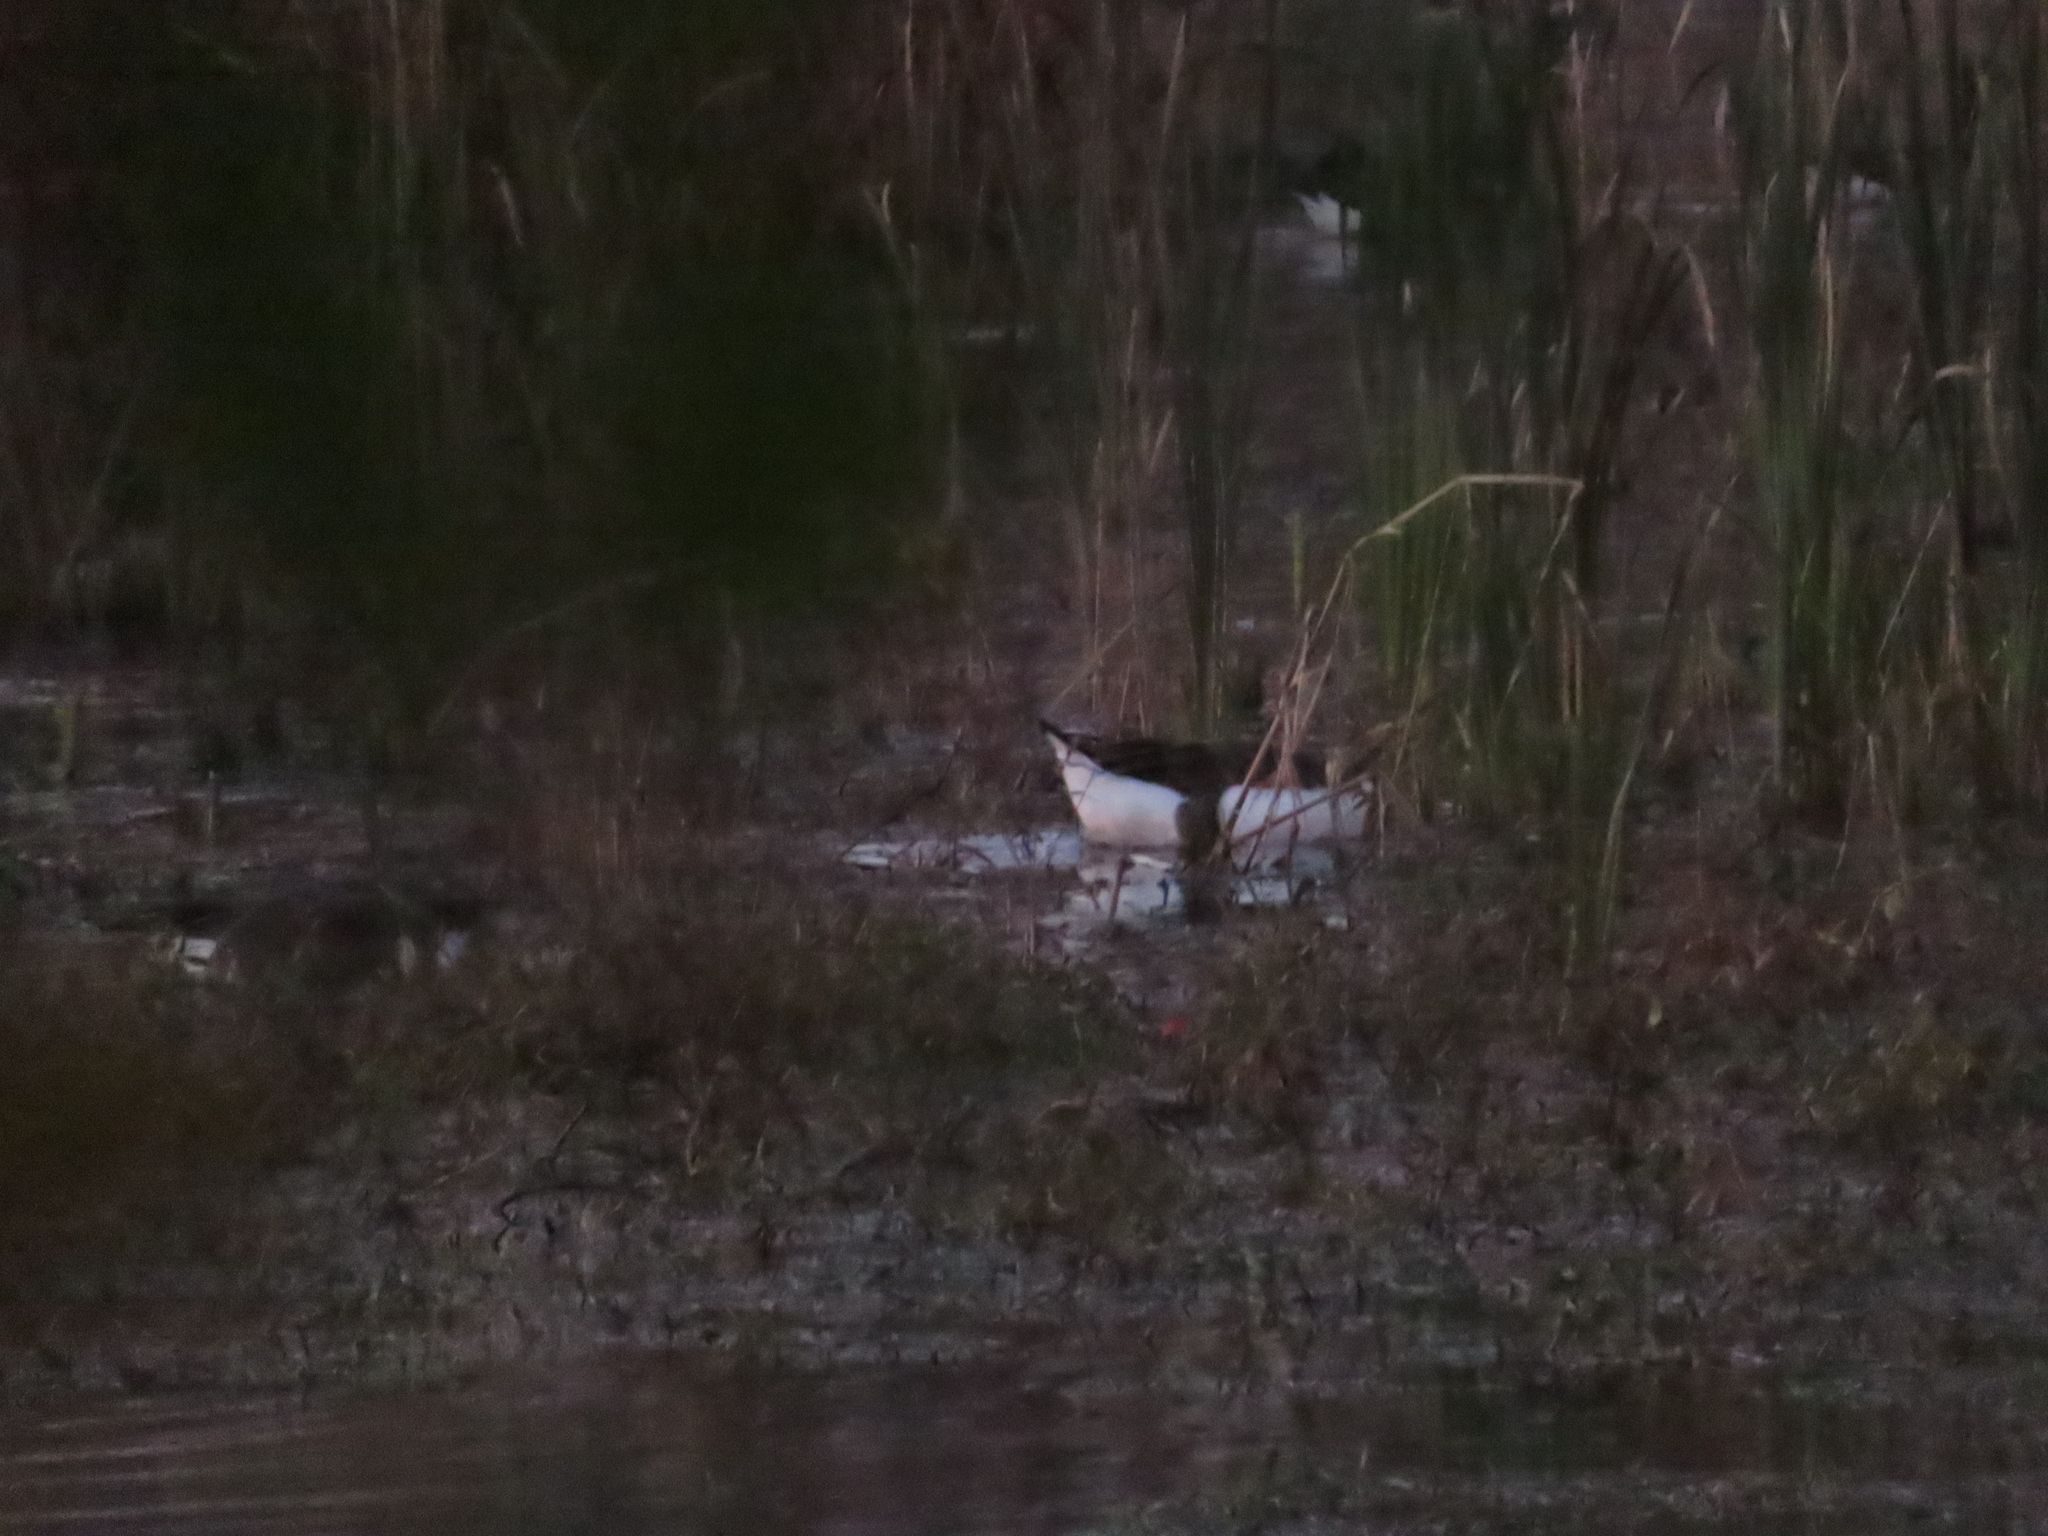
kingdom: Animalia
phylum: Chordata
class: Aves
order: Anseriformes
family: Anatidae
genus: Branta
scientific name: Branta canadensis
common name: Canada goose
